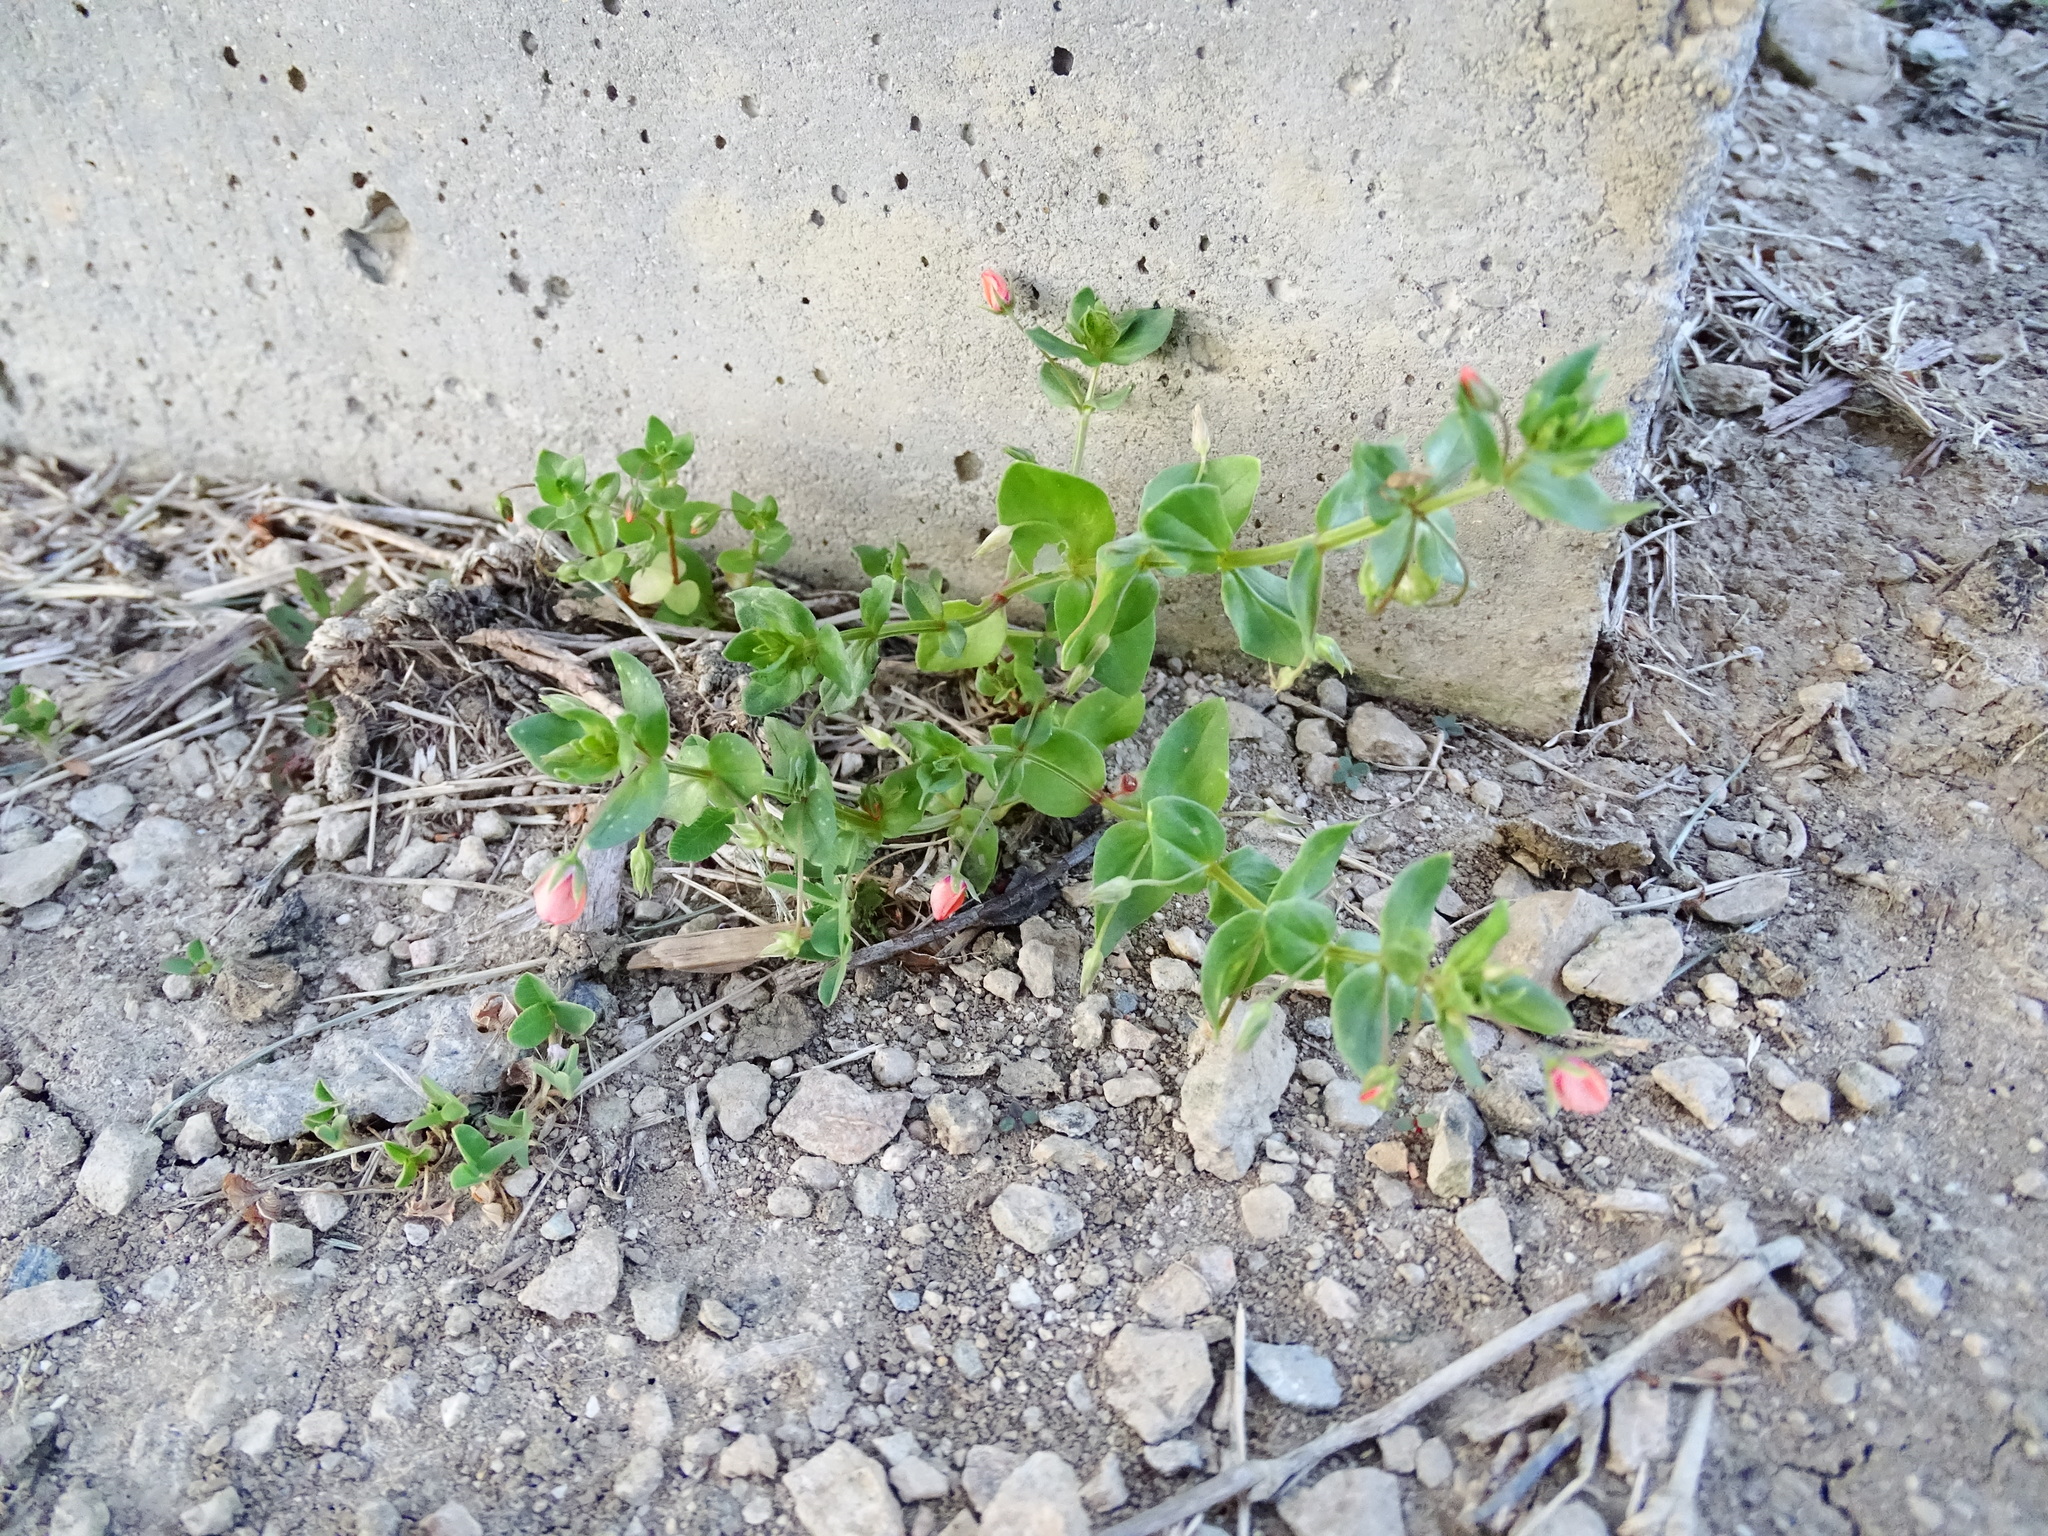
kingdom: Plantae
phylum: Tracheophyta
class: Magnoliopsida
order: Ericales
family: Primulaceae
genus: Lysimachia
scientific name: Lysimachia arvensis
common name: Scarlet pimpernel
